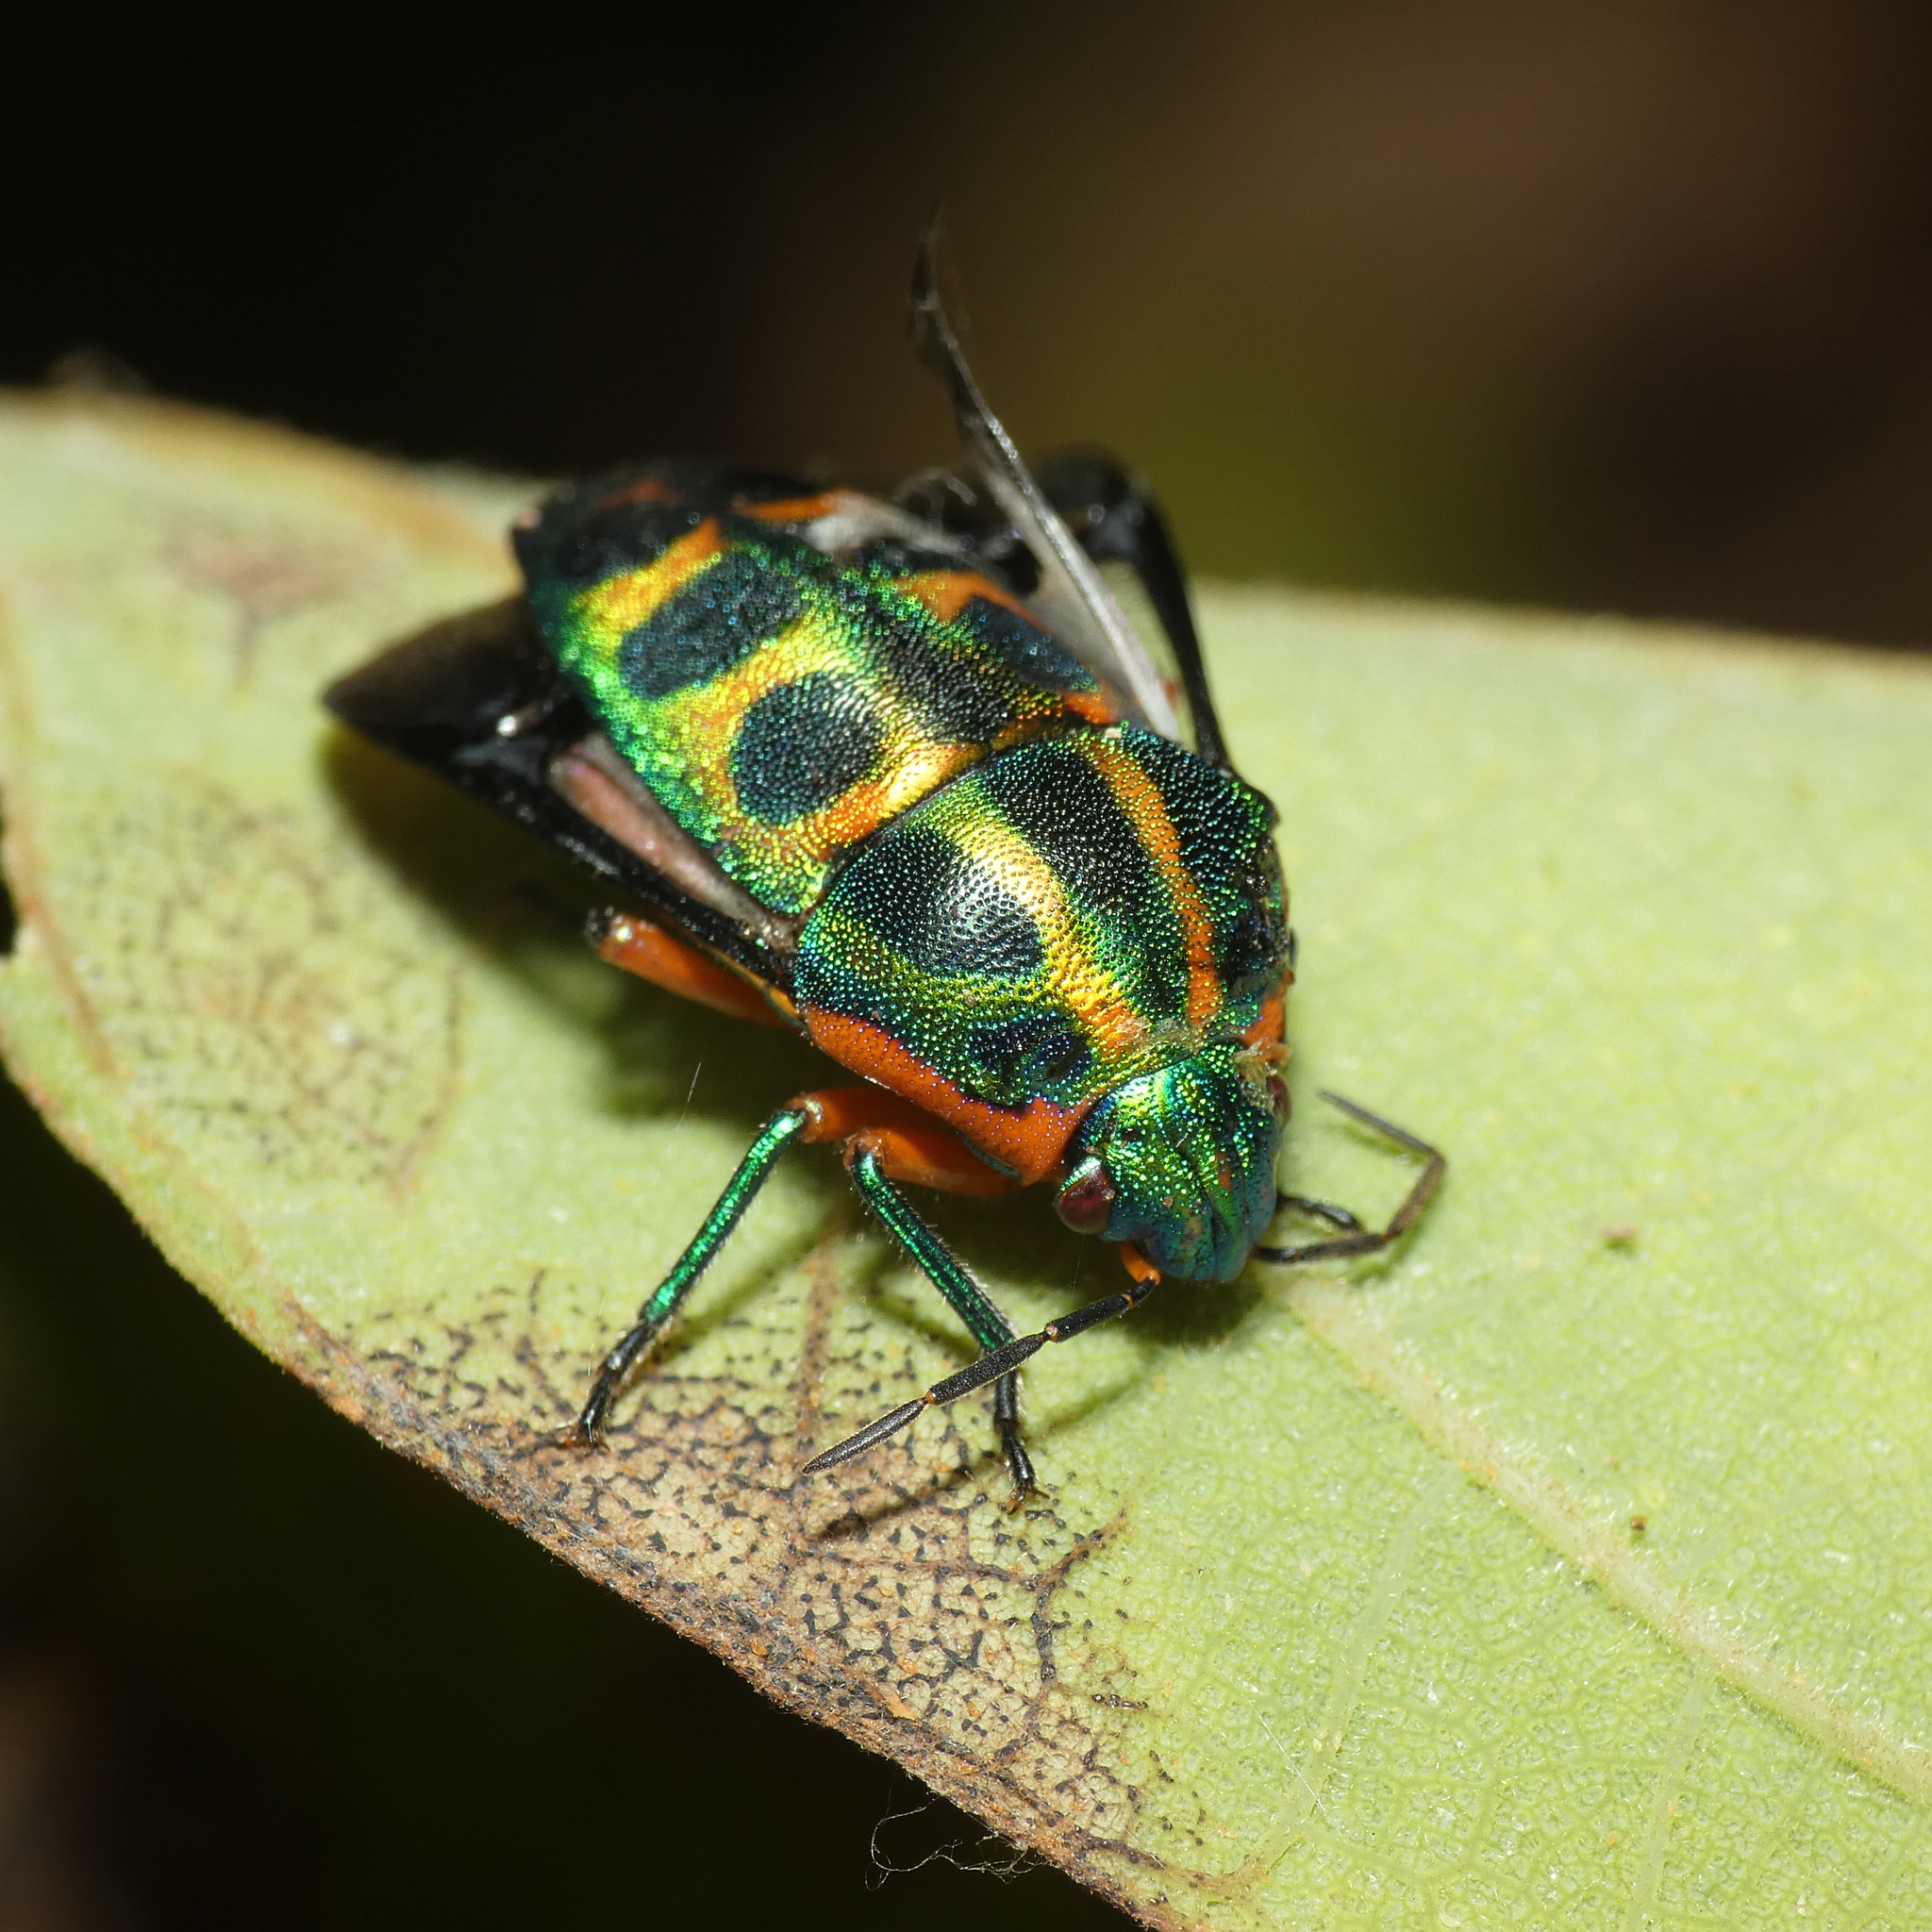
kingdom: Animalia
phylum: Arthropoda
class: Insecta
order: Hemiptera
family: Scutelleridae
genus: Calidea
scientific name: Calidea dregii
